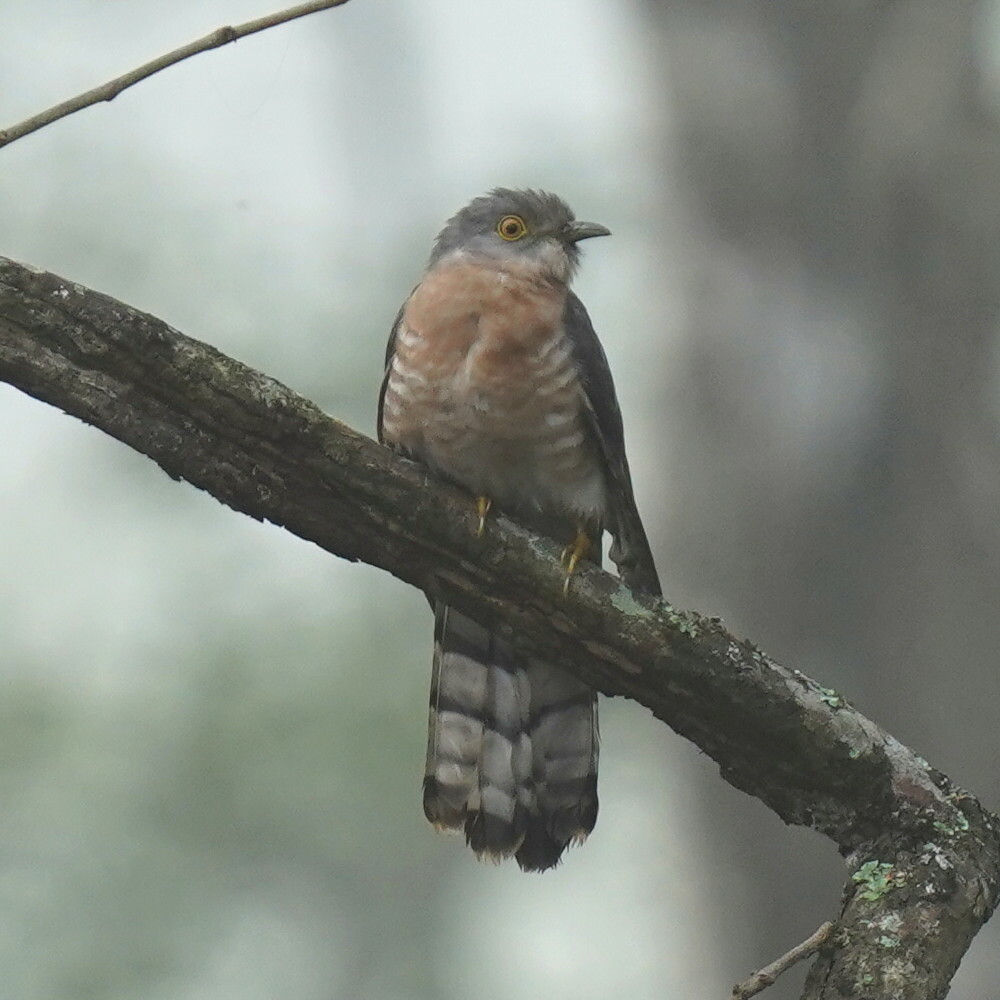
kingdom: Animalia
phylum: Chordata
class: Aves
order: Cuculiformes
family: Cuculidae
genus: Cuculus
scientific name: Cuculus varius
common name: Common hawk cuckoo
